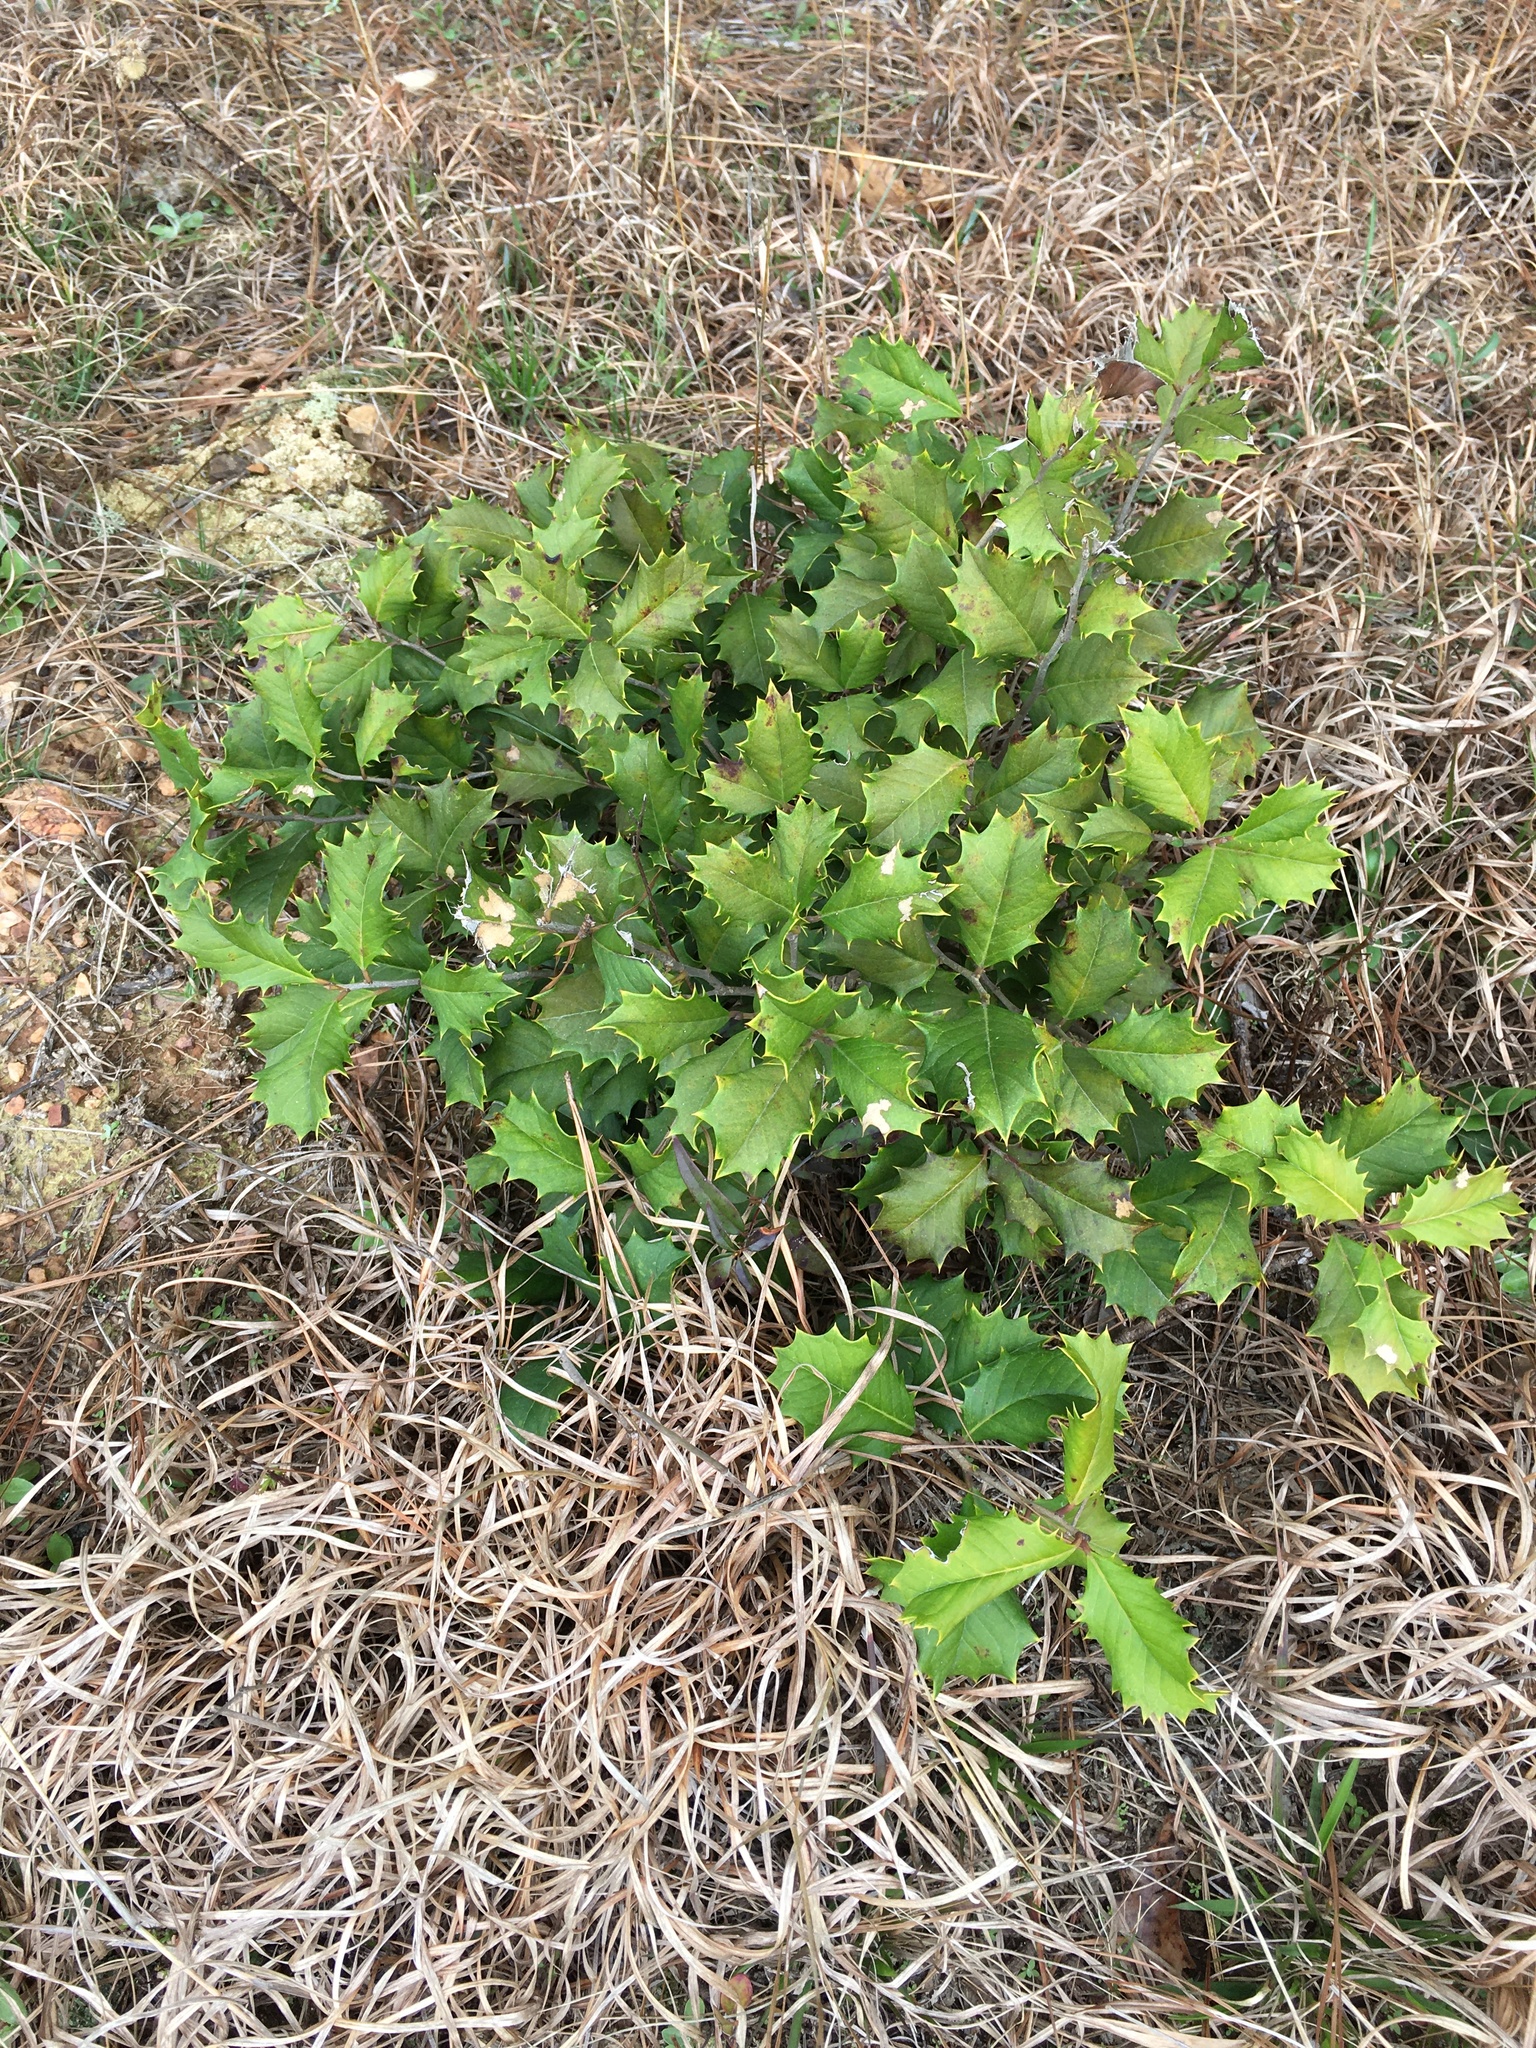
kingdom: Plantae
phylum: Tracheophyta
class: Magnoliopsida
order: Aquifoliales
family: Aquifoliaceae
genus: Ilex
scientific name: Ilex opaca
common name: American holly
